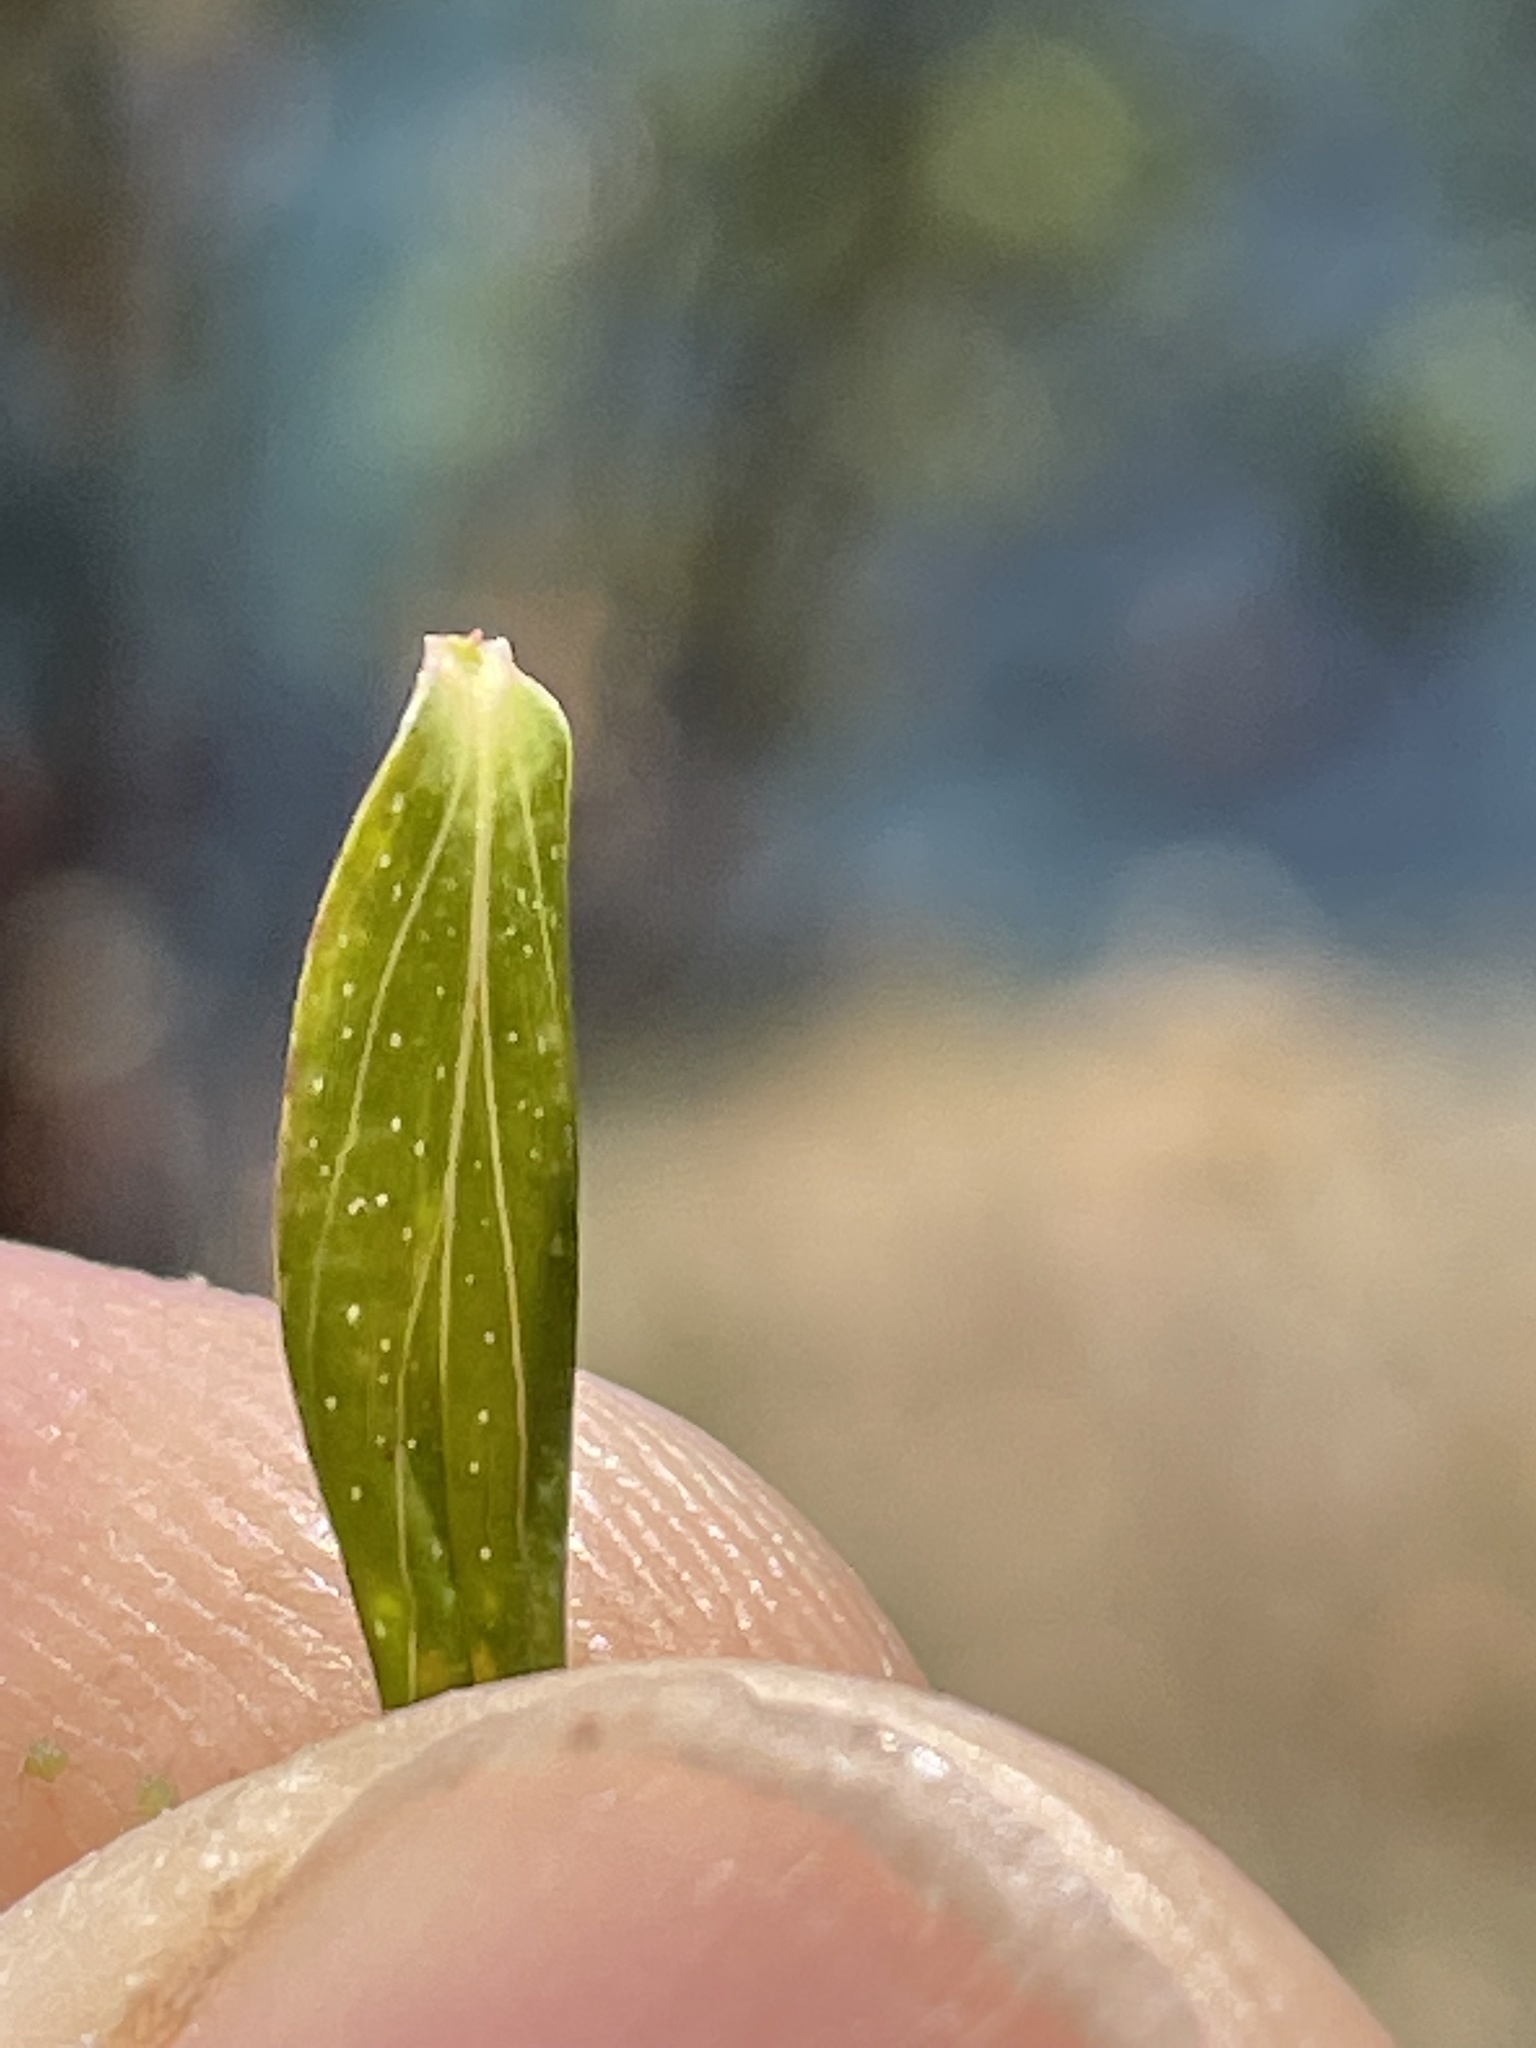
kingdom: Plantae
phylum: Tracheophyta
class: Magnoliopsida
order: Malpighiales
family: Hypericaceae
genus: Hypericum
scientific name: Hypericum perforatum
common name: Common st. johnswort
